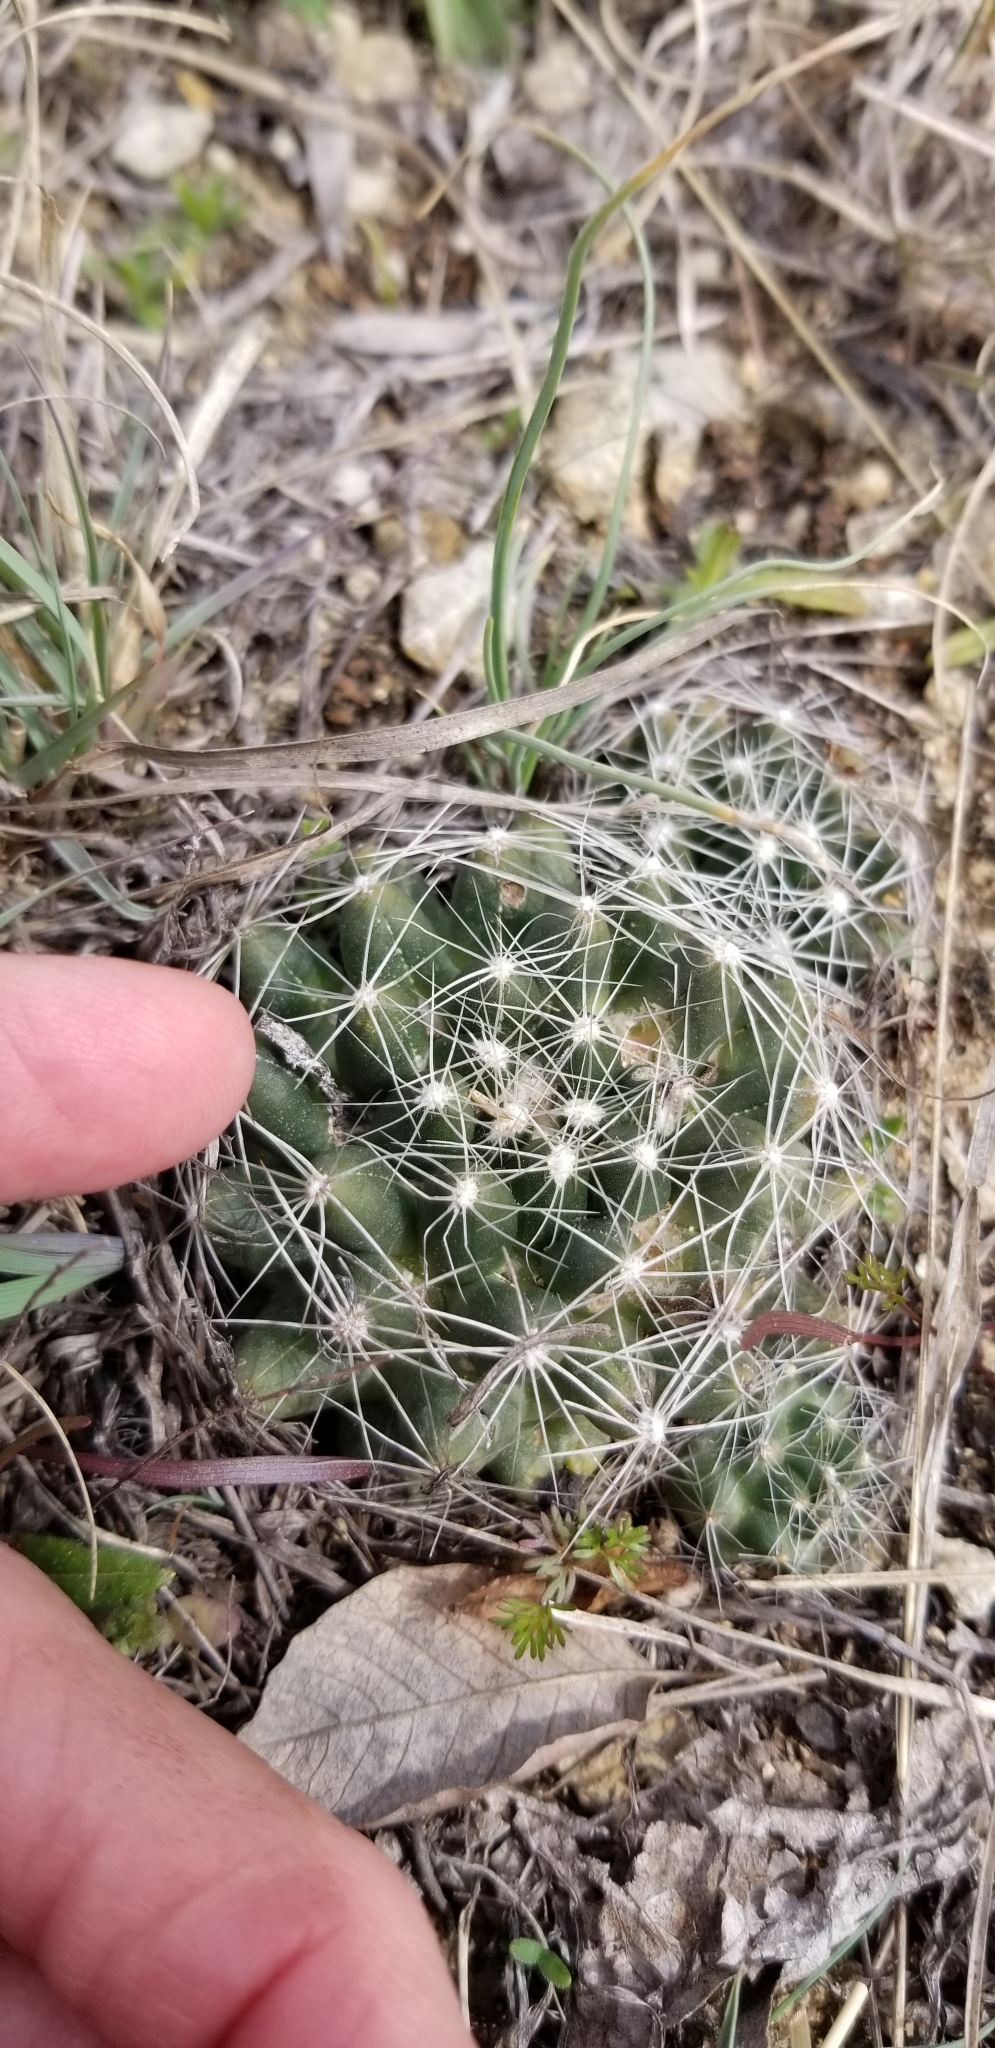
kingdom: Plantae
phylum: Tracheophyta
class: Magnoliopsida
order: Caryophyllales
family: Cactaceae
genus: Pelecyphora
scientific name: Pelecyphora missouriensis
